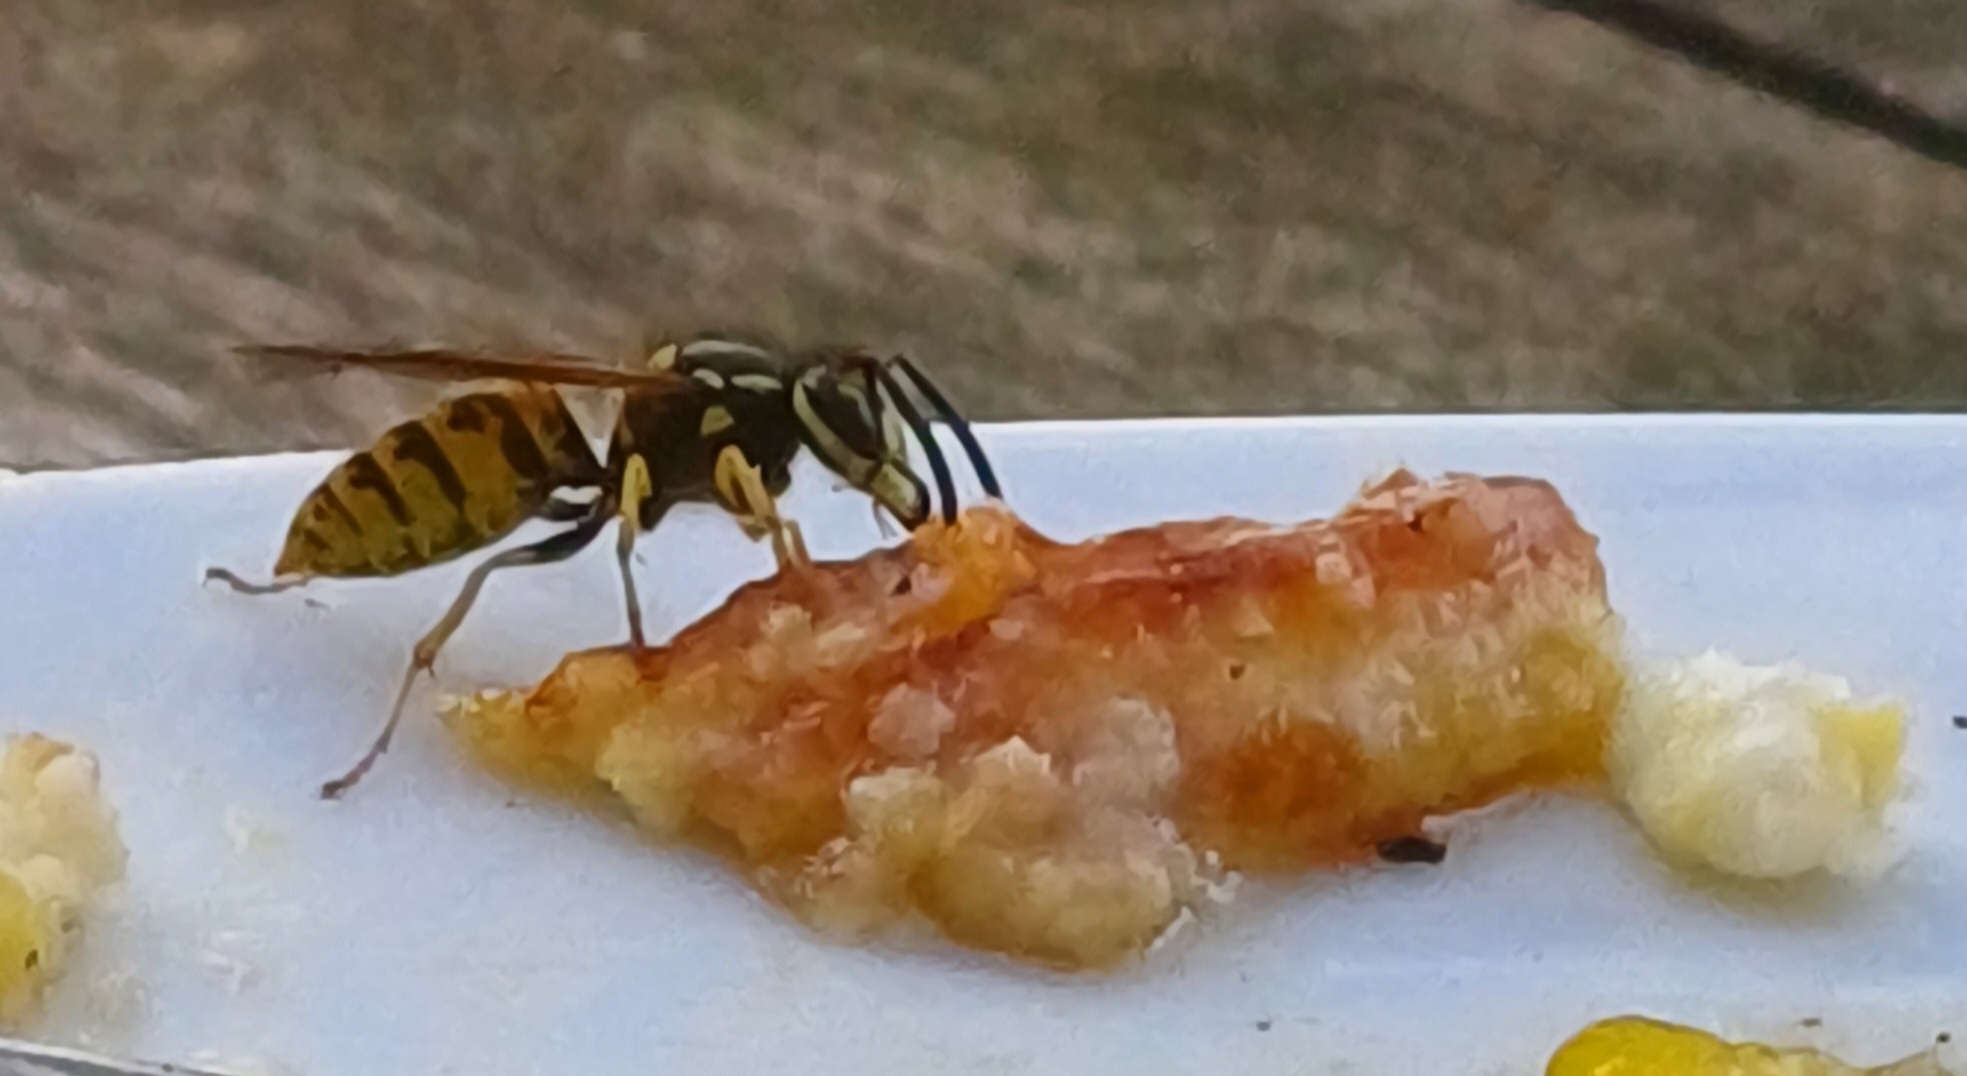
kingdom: Animalia
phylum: Arthropoda
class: Insecta
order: Hymenoptera
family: Vespidae
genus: Vespula
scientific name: Vespula germanica
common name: German wasp
